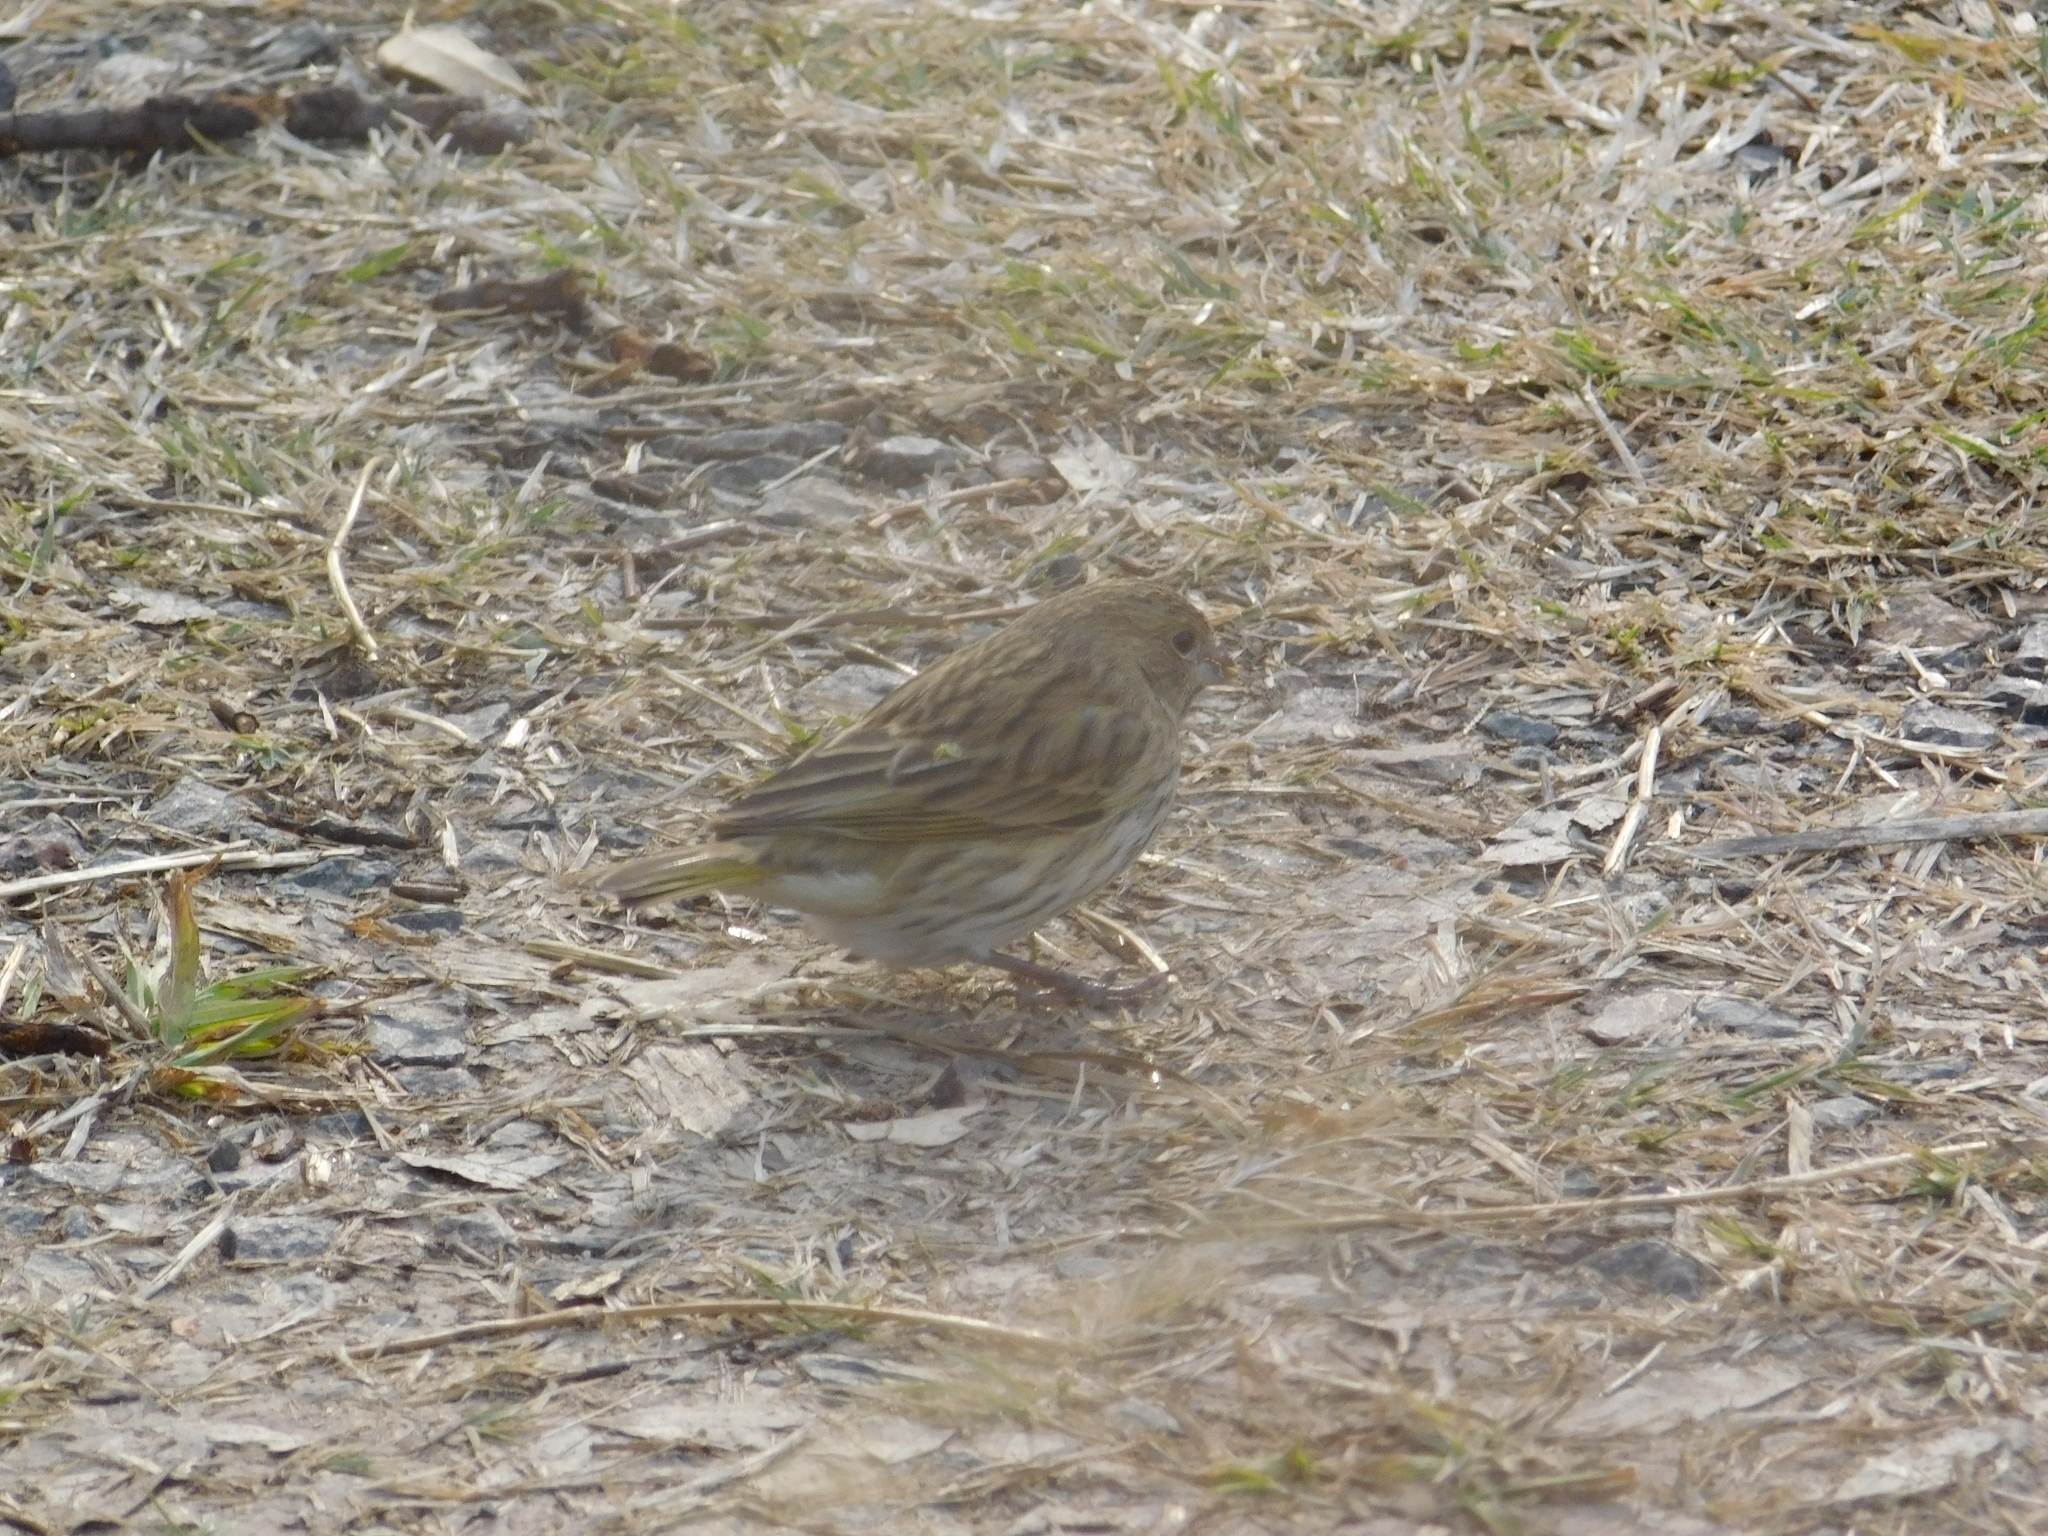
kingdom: Animalia
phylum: Chordata
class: Aves
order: Passeriformes
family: Thraupidae
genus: Sicalis
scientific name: Sicalis flaveola
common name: Saffron finch
